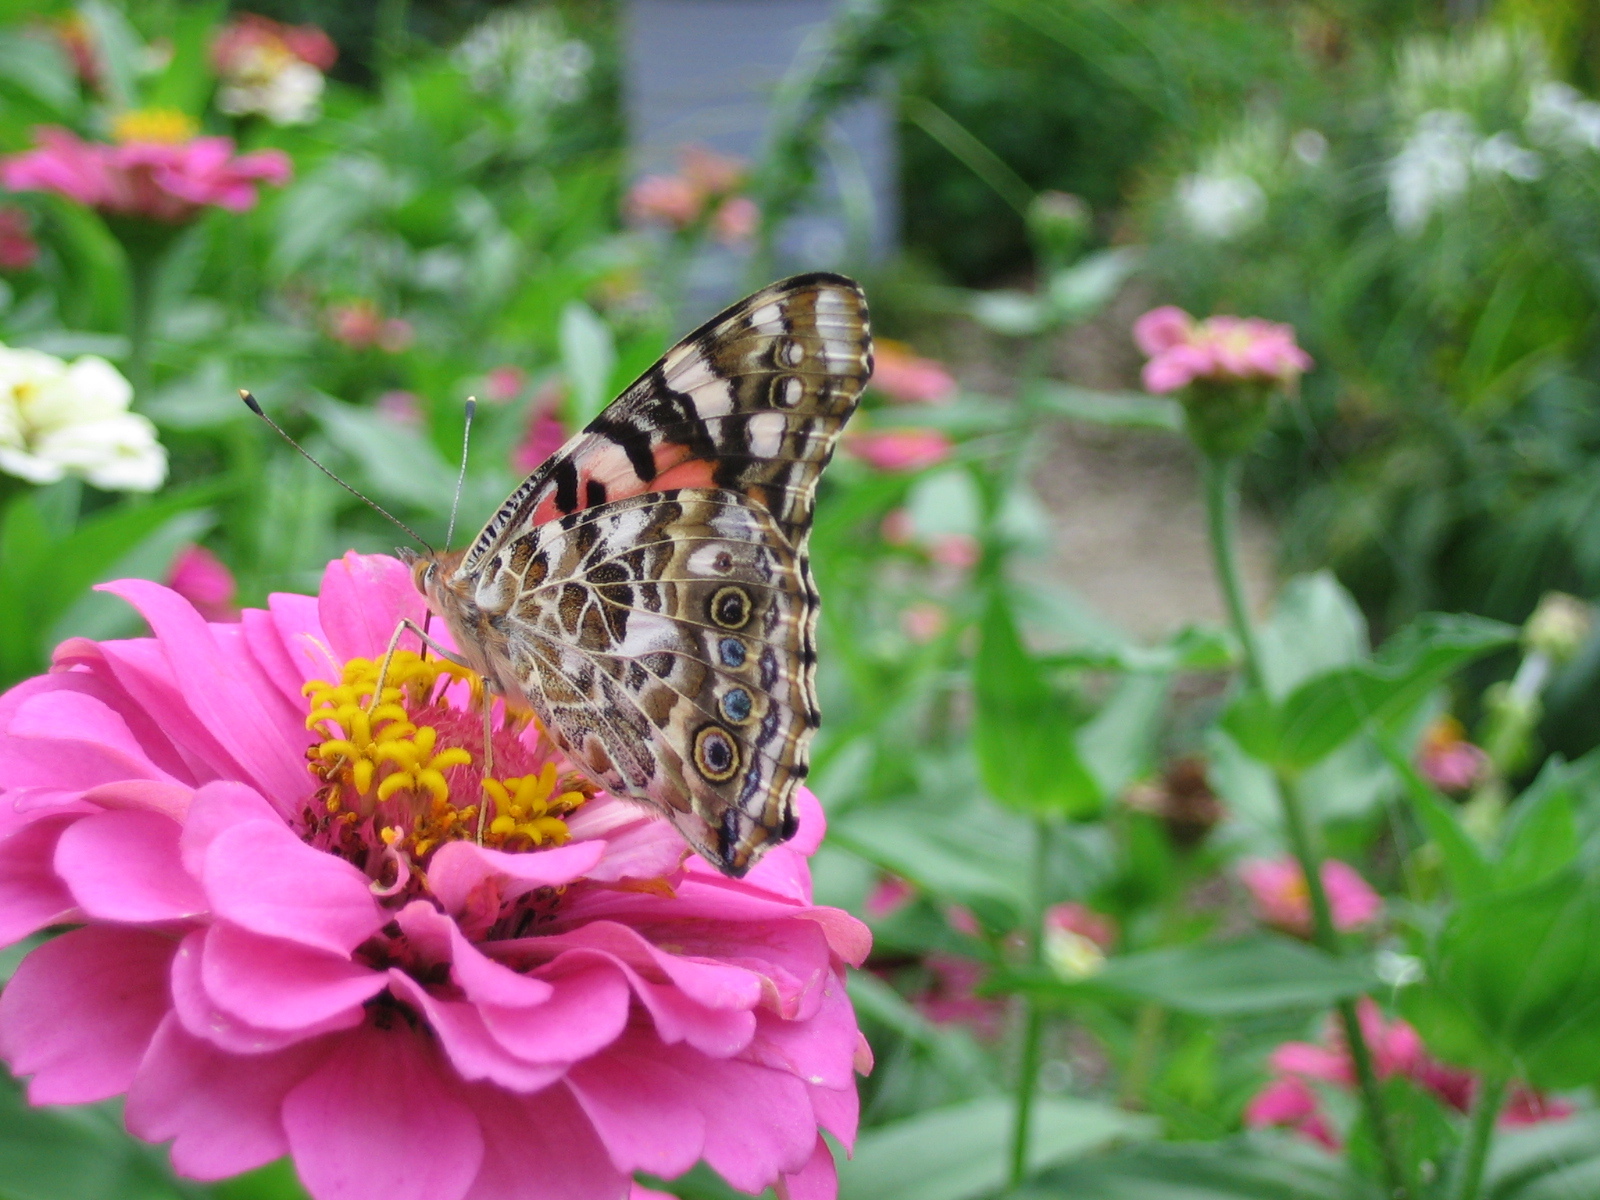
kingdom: Animalia
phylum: Arthropoda
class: Insecta
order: Lepidoptera
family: Nymphalidae
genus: Vanessa
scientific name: Vanessa cardui
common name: Painted lady
